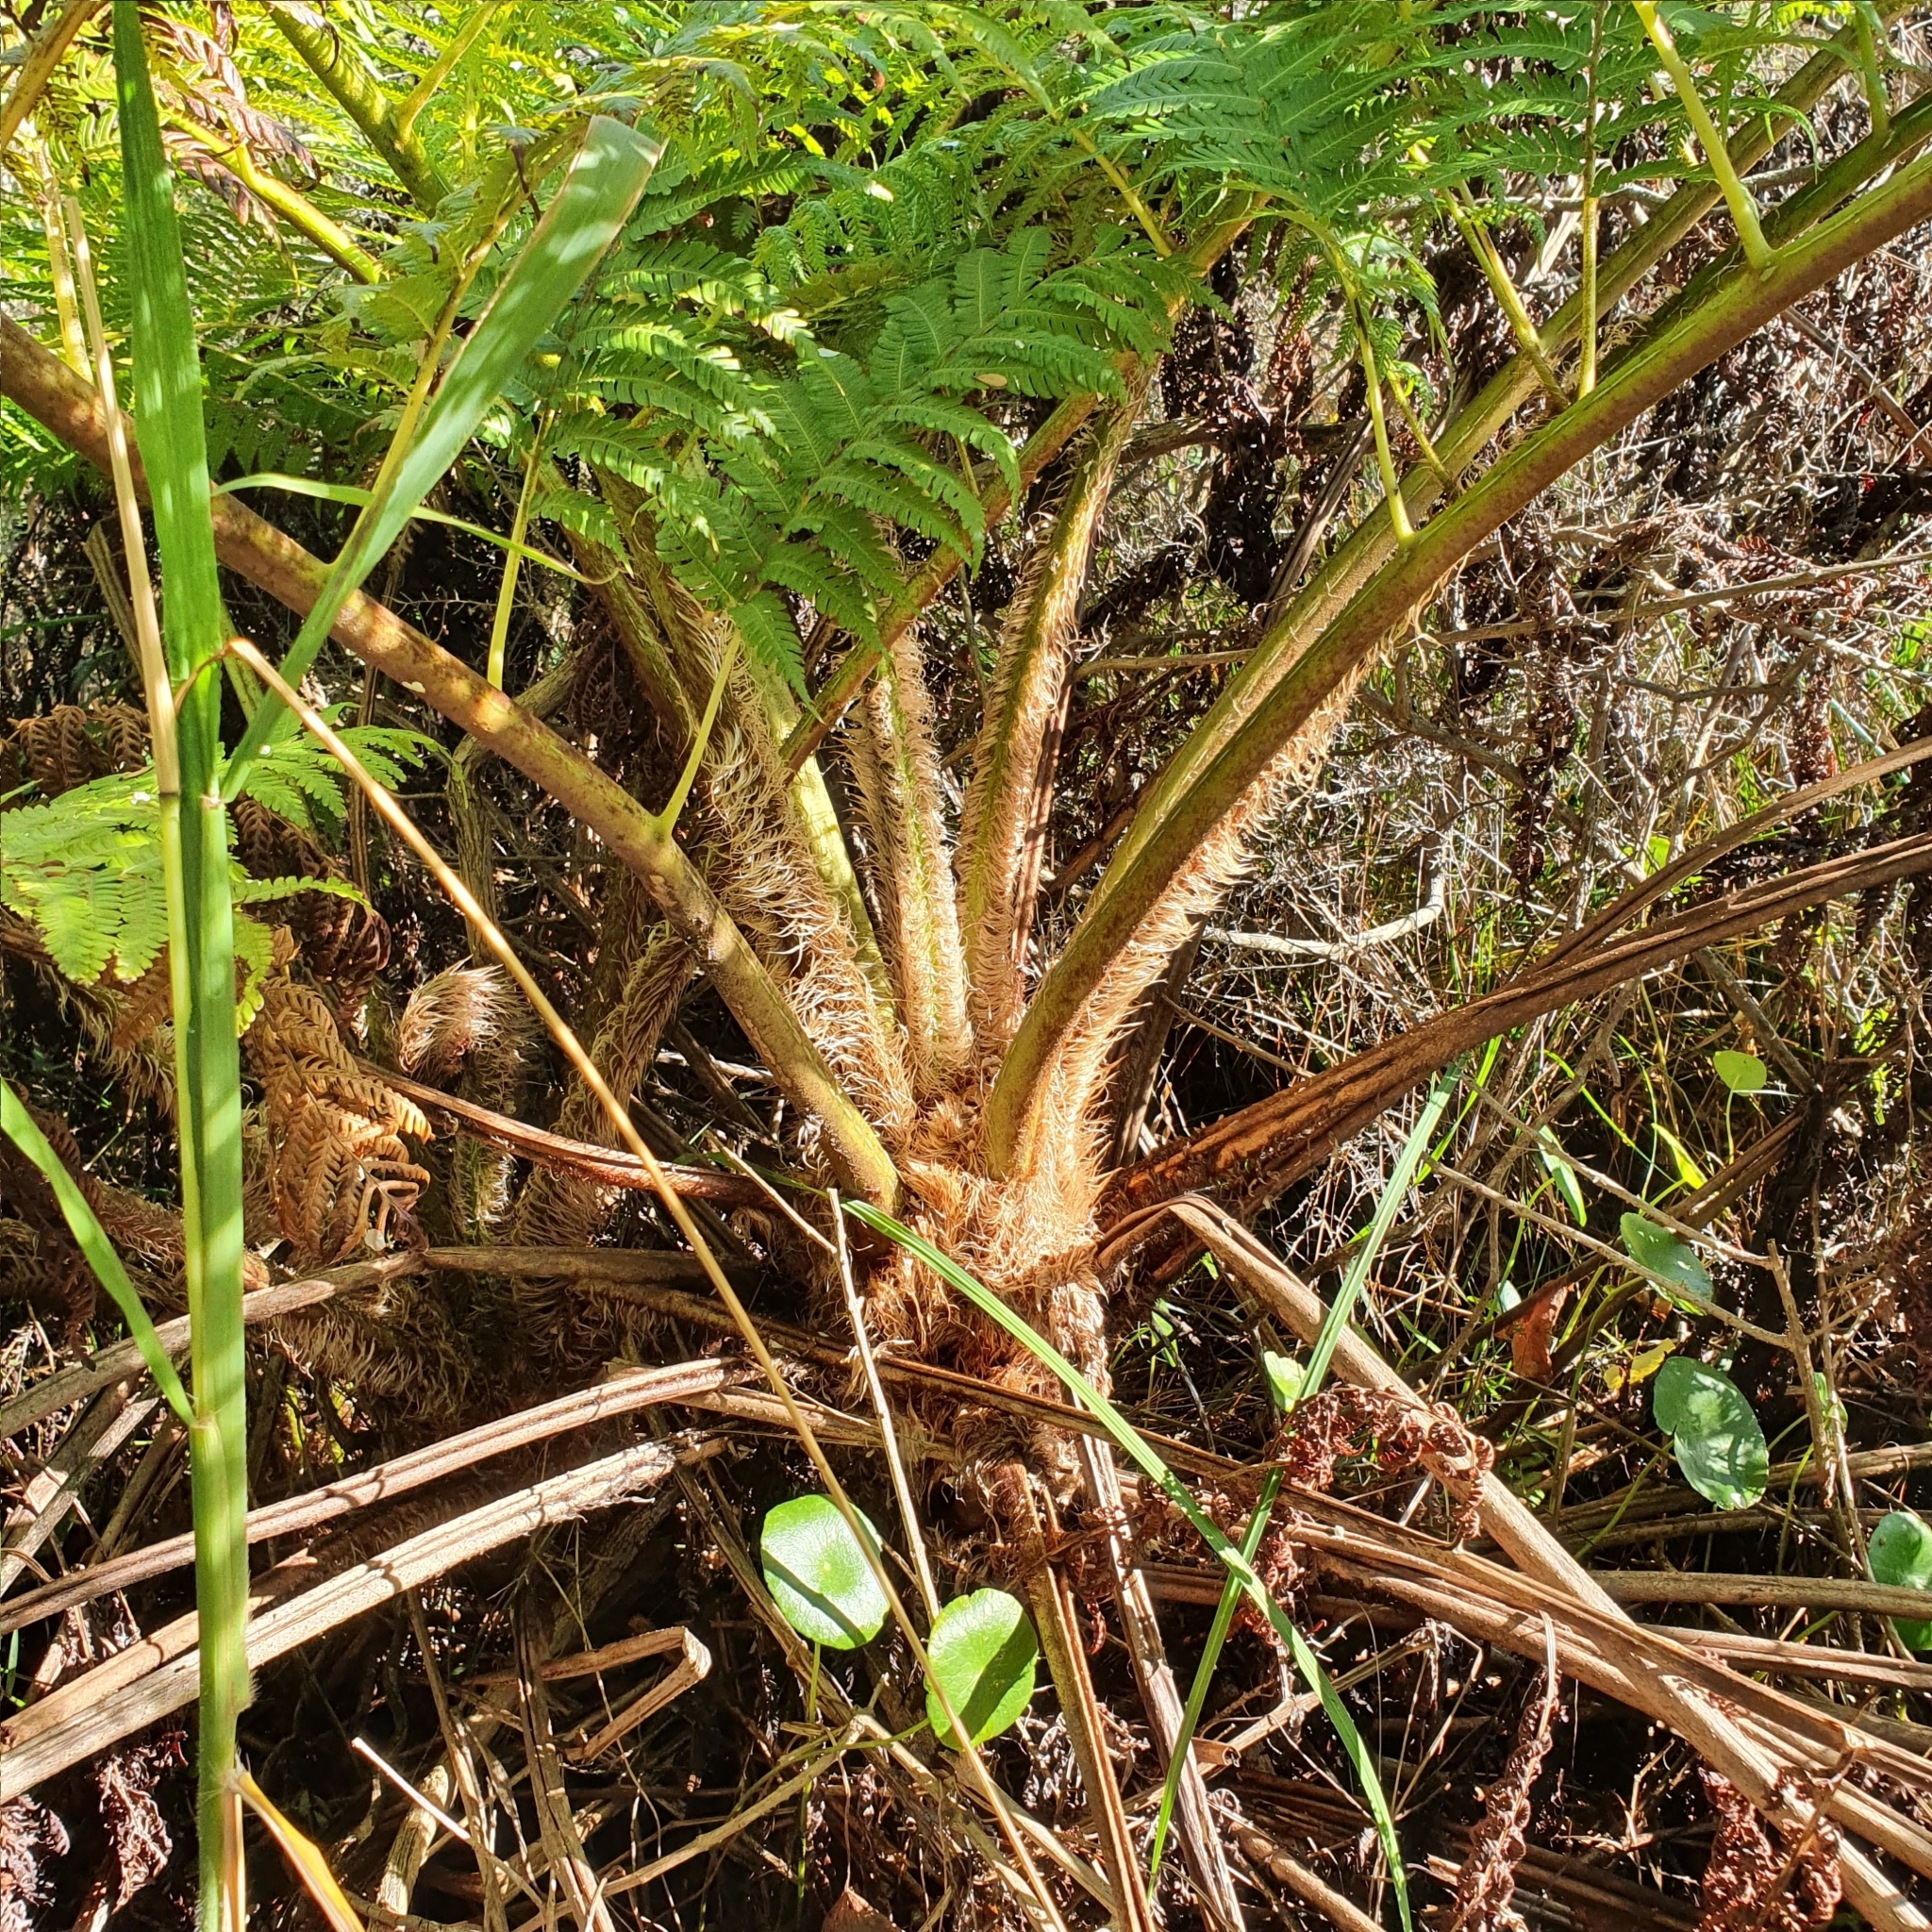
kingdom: Plantae
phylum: Tracheophyta
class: Polypodiopsida
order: Cyatheales
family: Cyatheaceae
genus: Sphaeropteris
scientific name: Sphaeropteris cooperi
